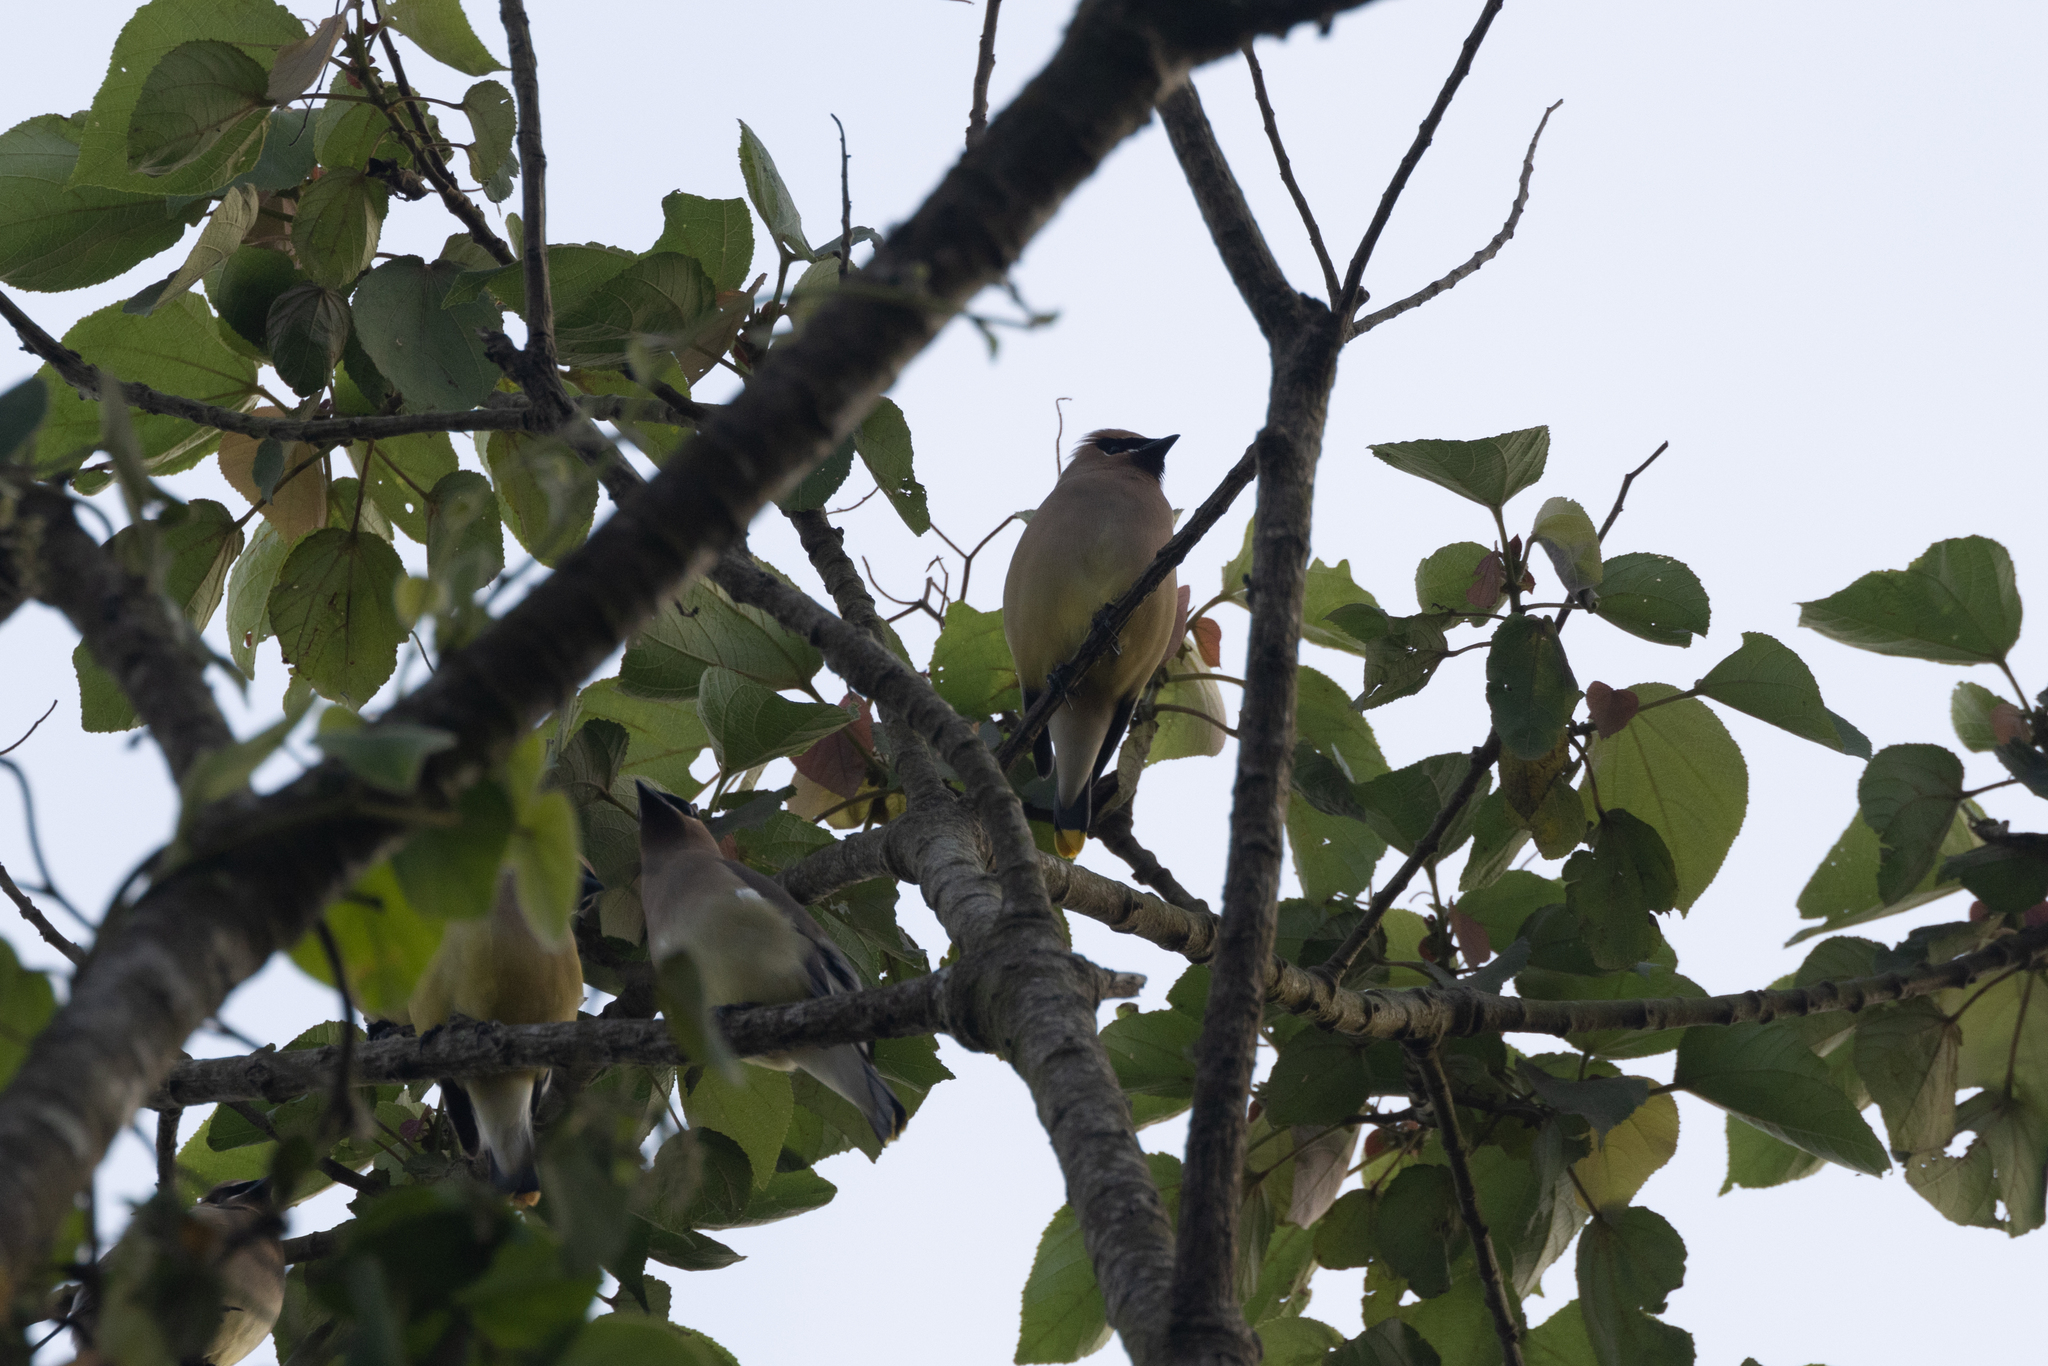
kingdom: Animalia
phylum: Chordata
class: Aves
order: Passeriformes
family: Bombycillidae
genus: Bombycilla
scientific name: Bombycilla cedrorum
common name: Cedar waxwing
